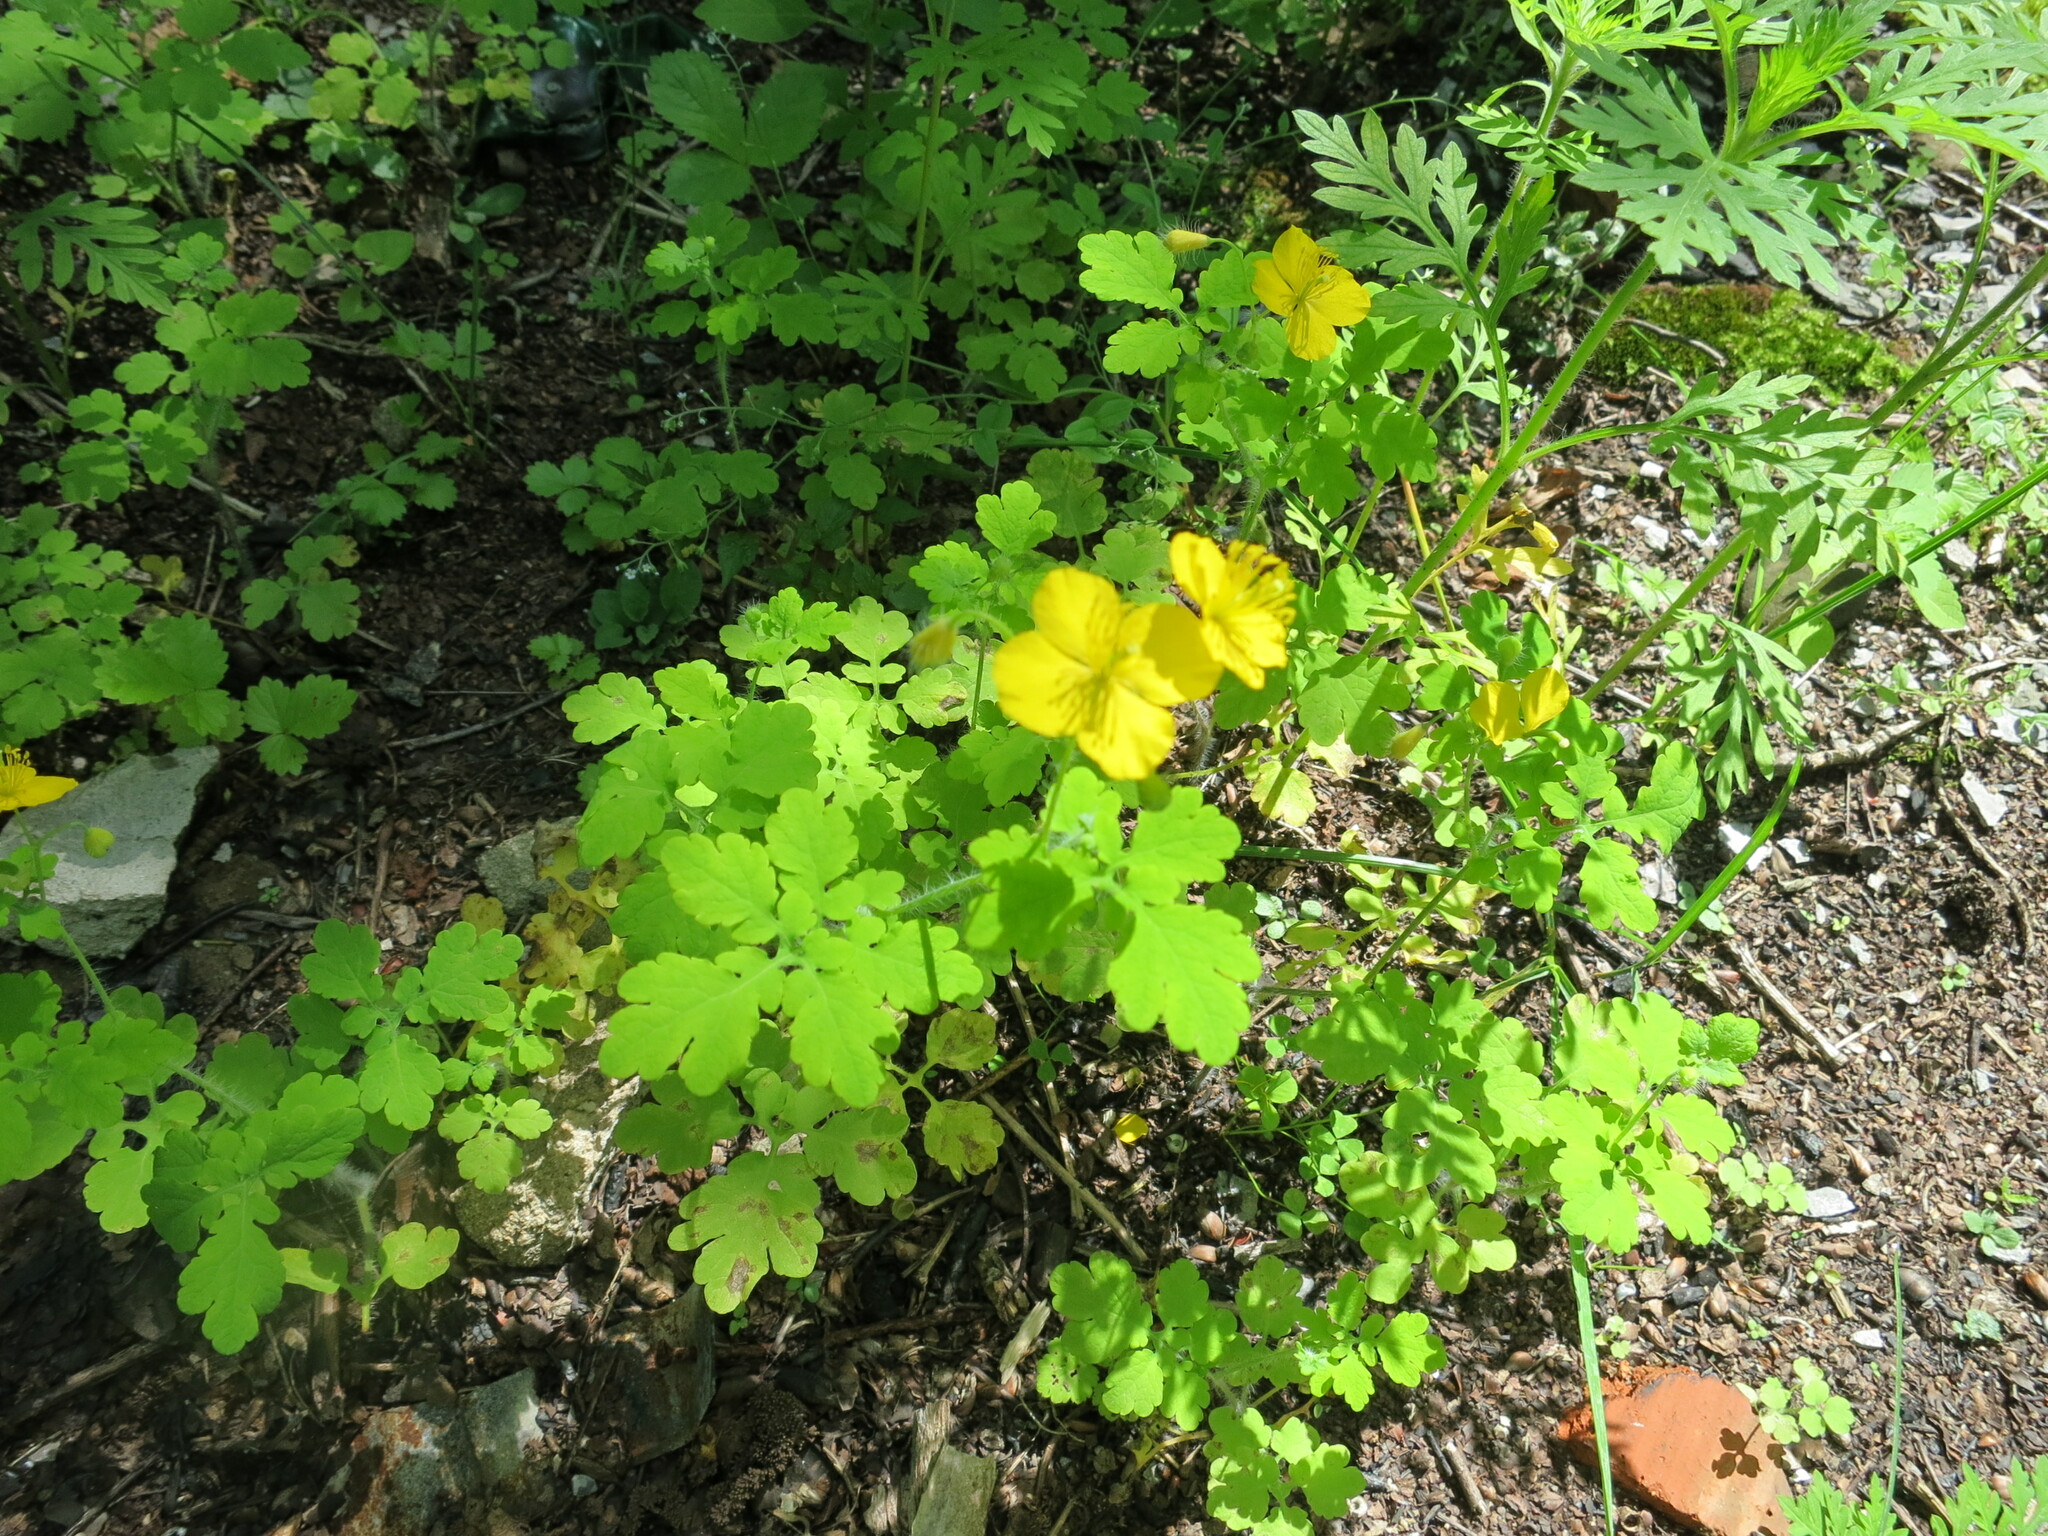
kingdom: Plantae
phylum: Tracheophyta
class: Magnoliopsida
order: Ranunculales
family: Papaveraceae
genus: Chelidonium
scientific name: Chelidonium majus
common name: Greater celandine
